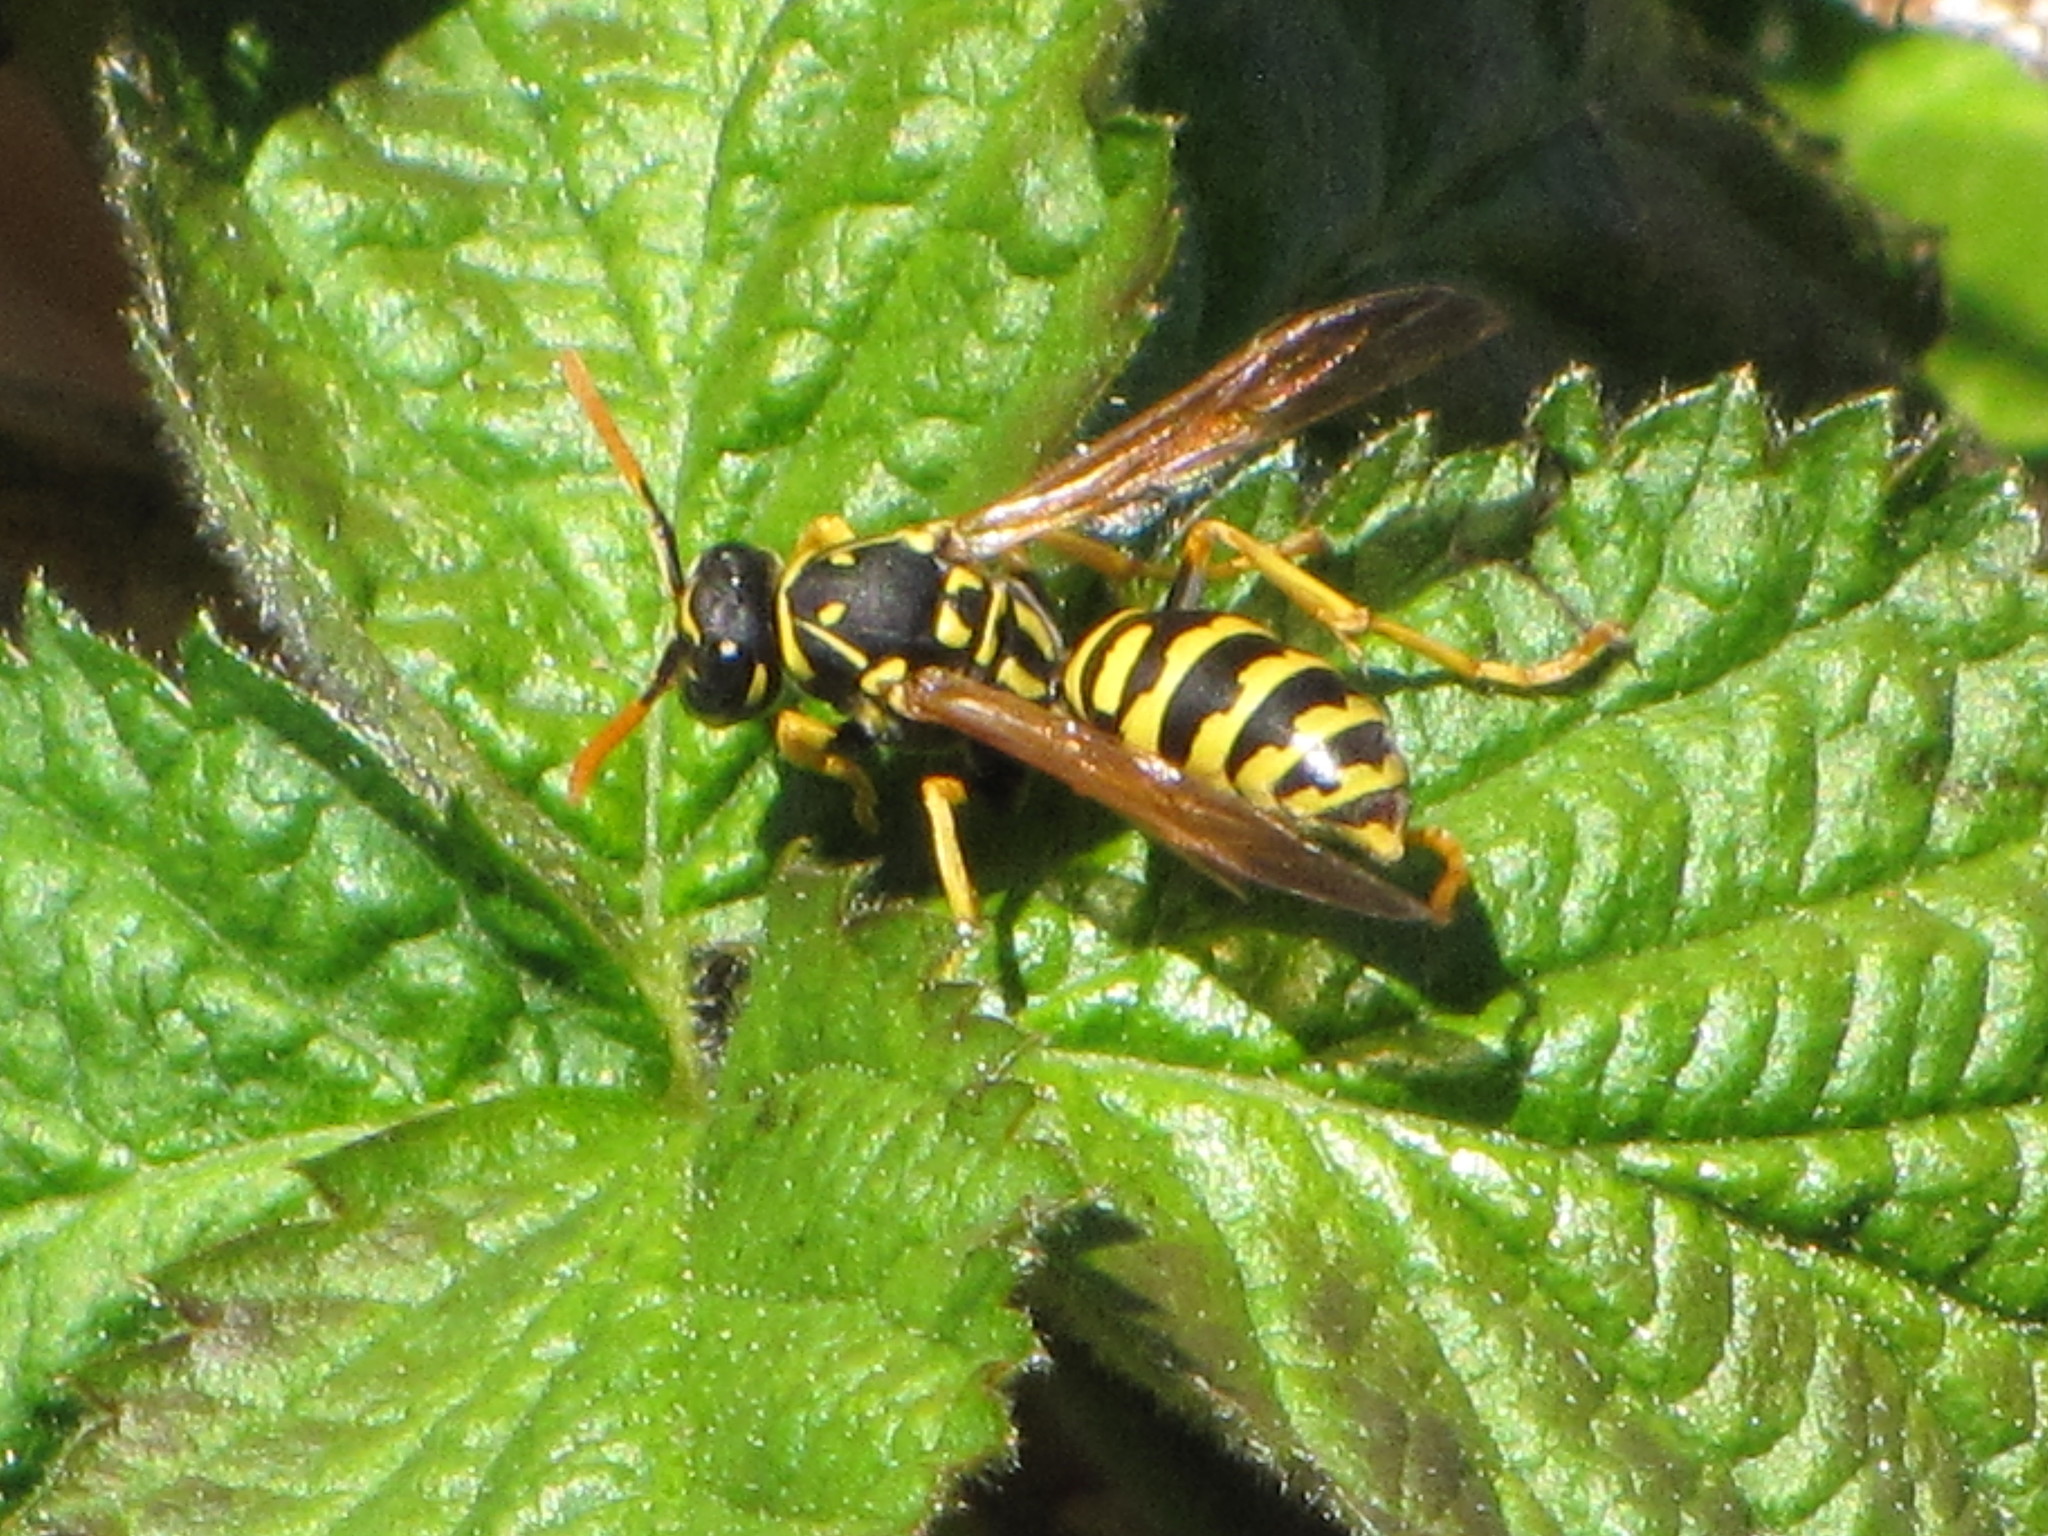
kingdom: Animalia
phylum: Arthropoda
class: Insecta
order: Hymenoptera
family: Eumenidae
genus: Polistes
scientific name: Polistes dominula
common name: Paper wasp
